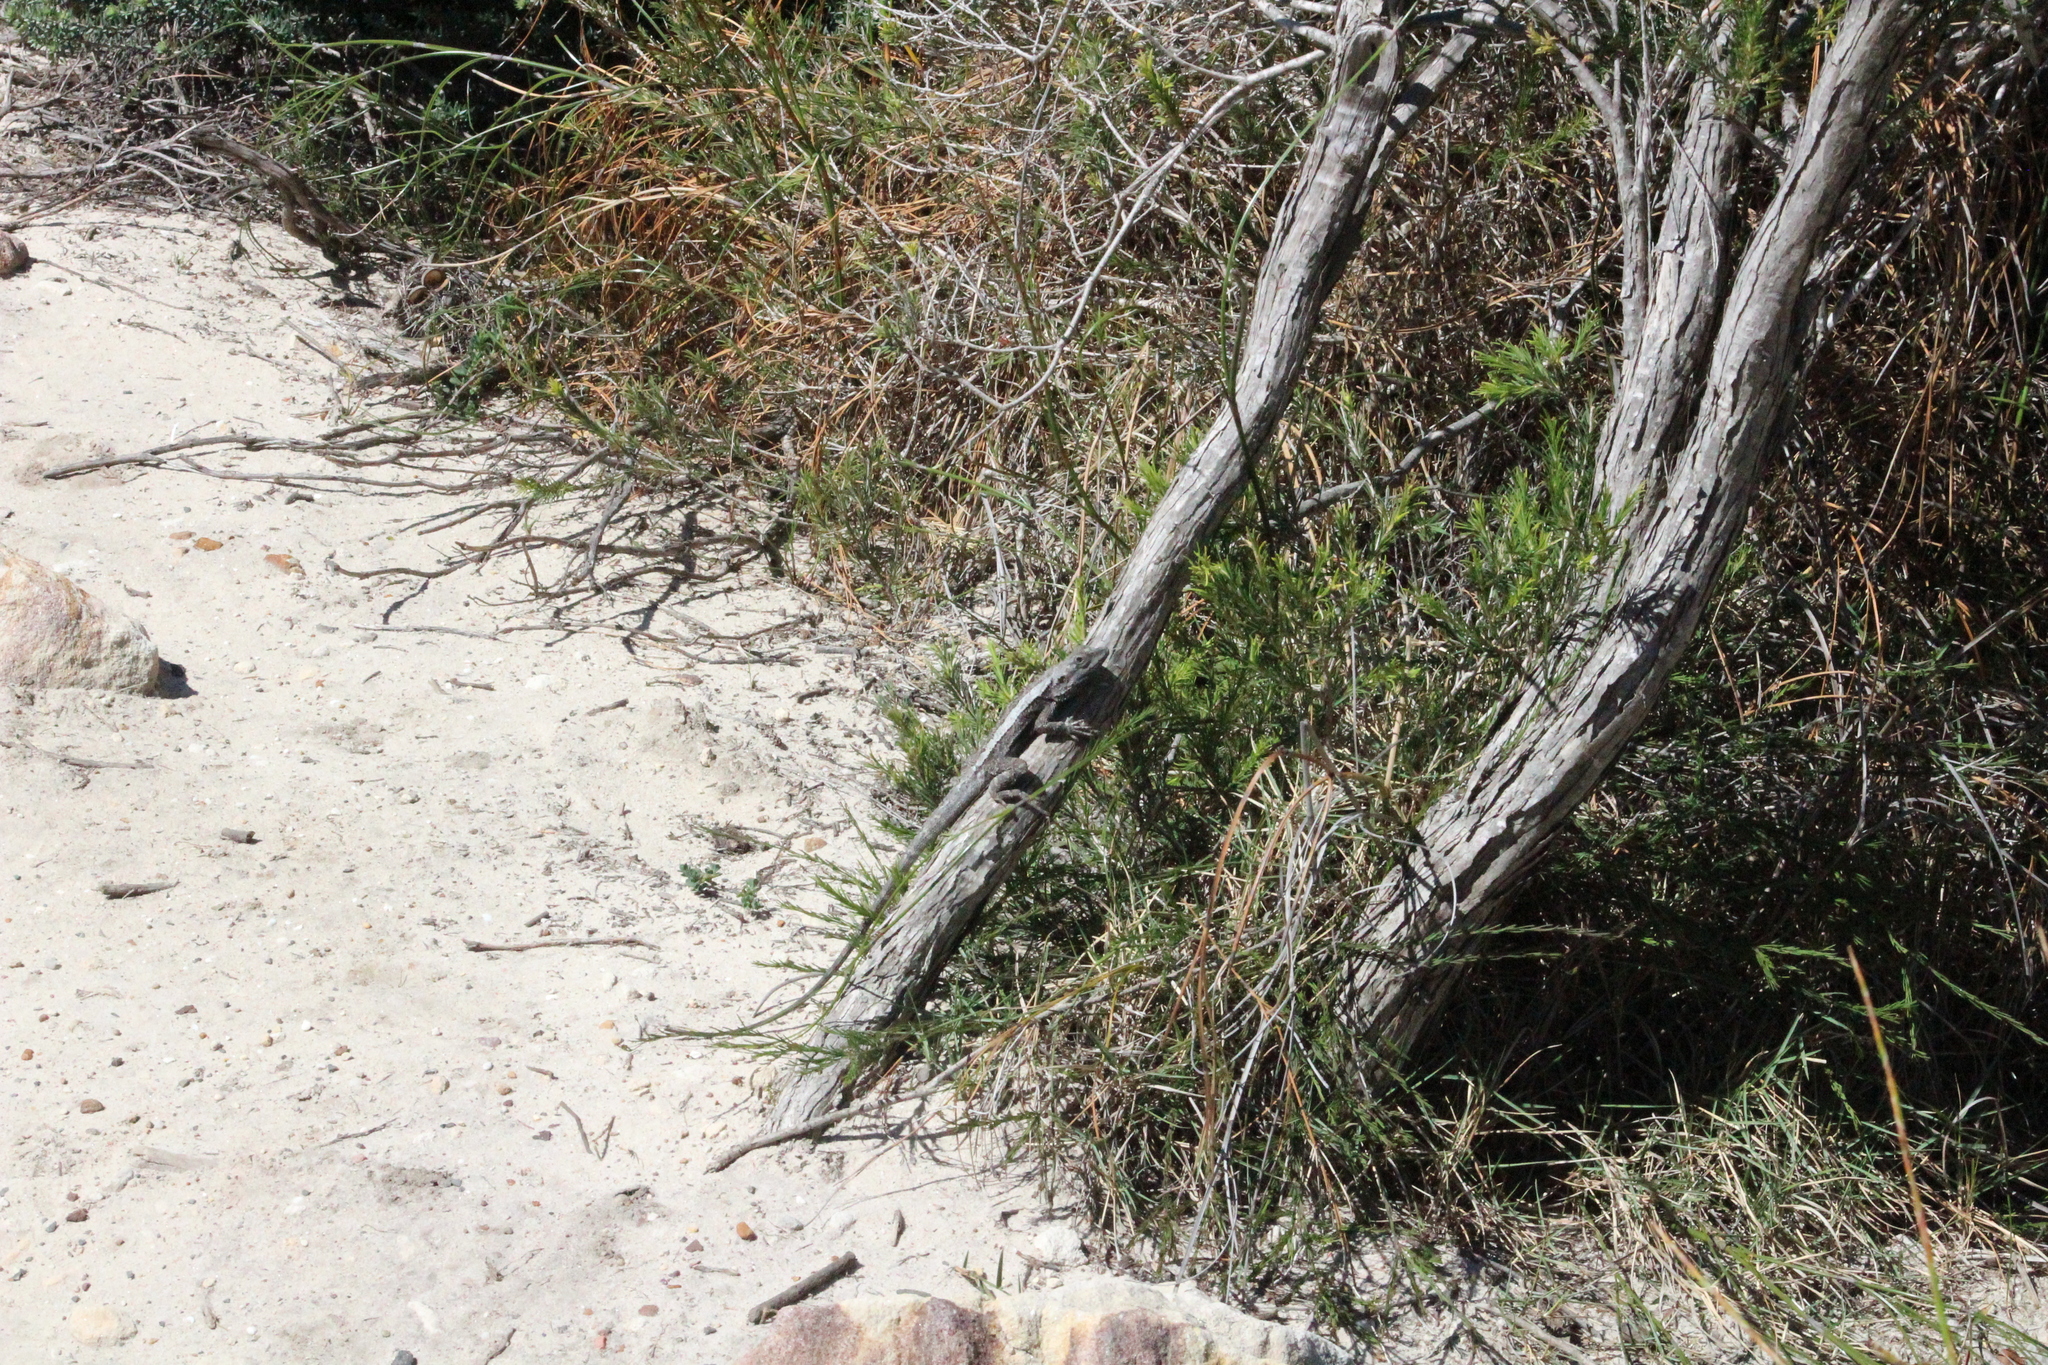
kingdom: Animalia
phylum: Chordata
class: Squamata
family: Agamidae
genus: Amphibolurus
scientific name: Amphibolurus muricatus
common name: Jacky lizard
